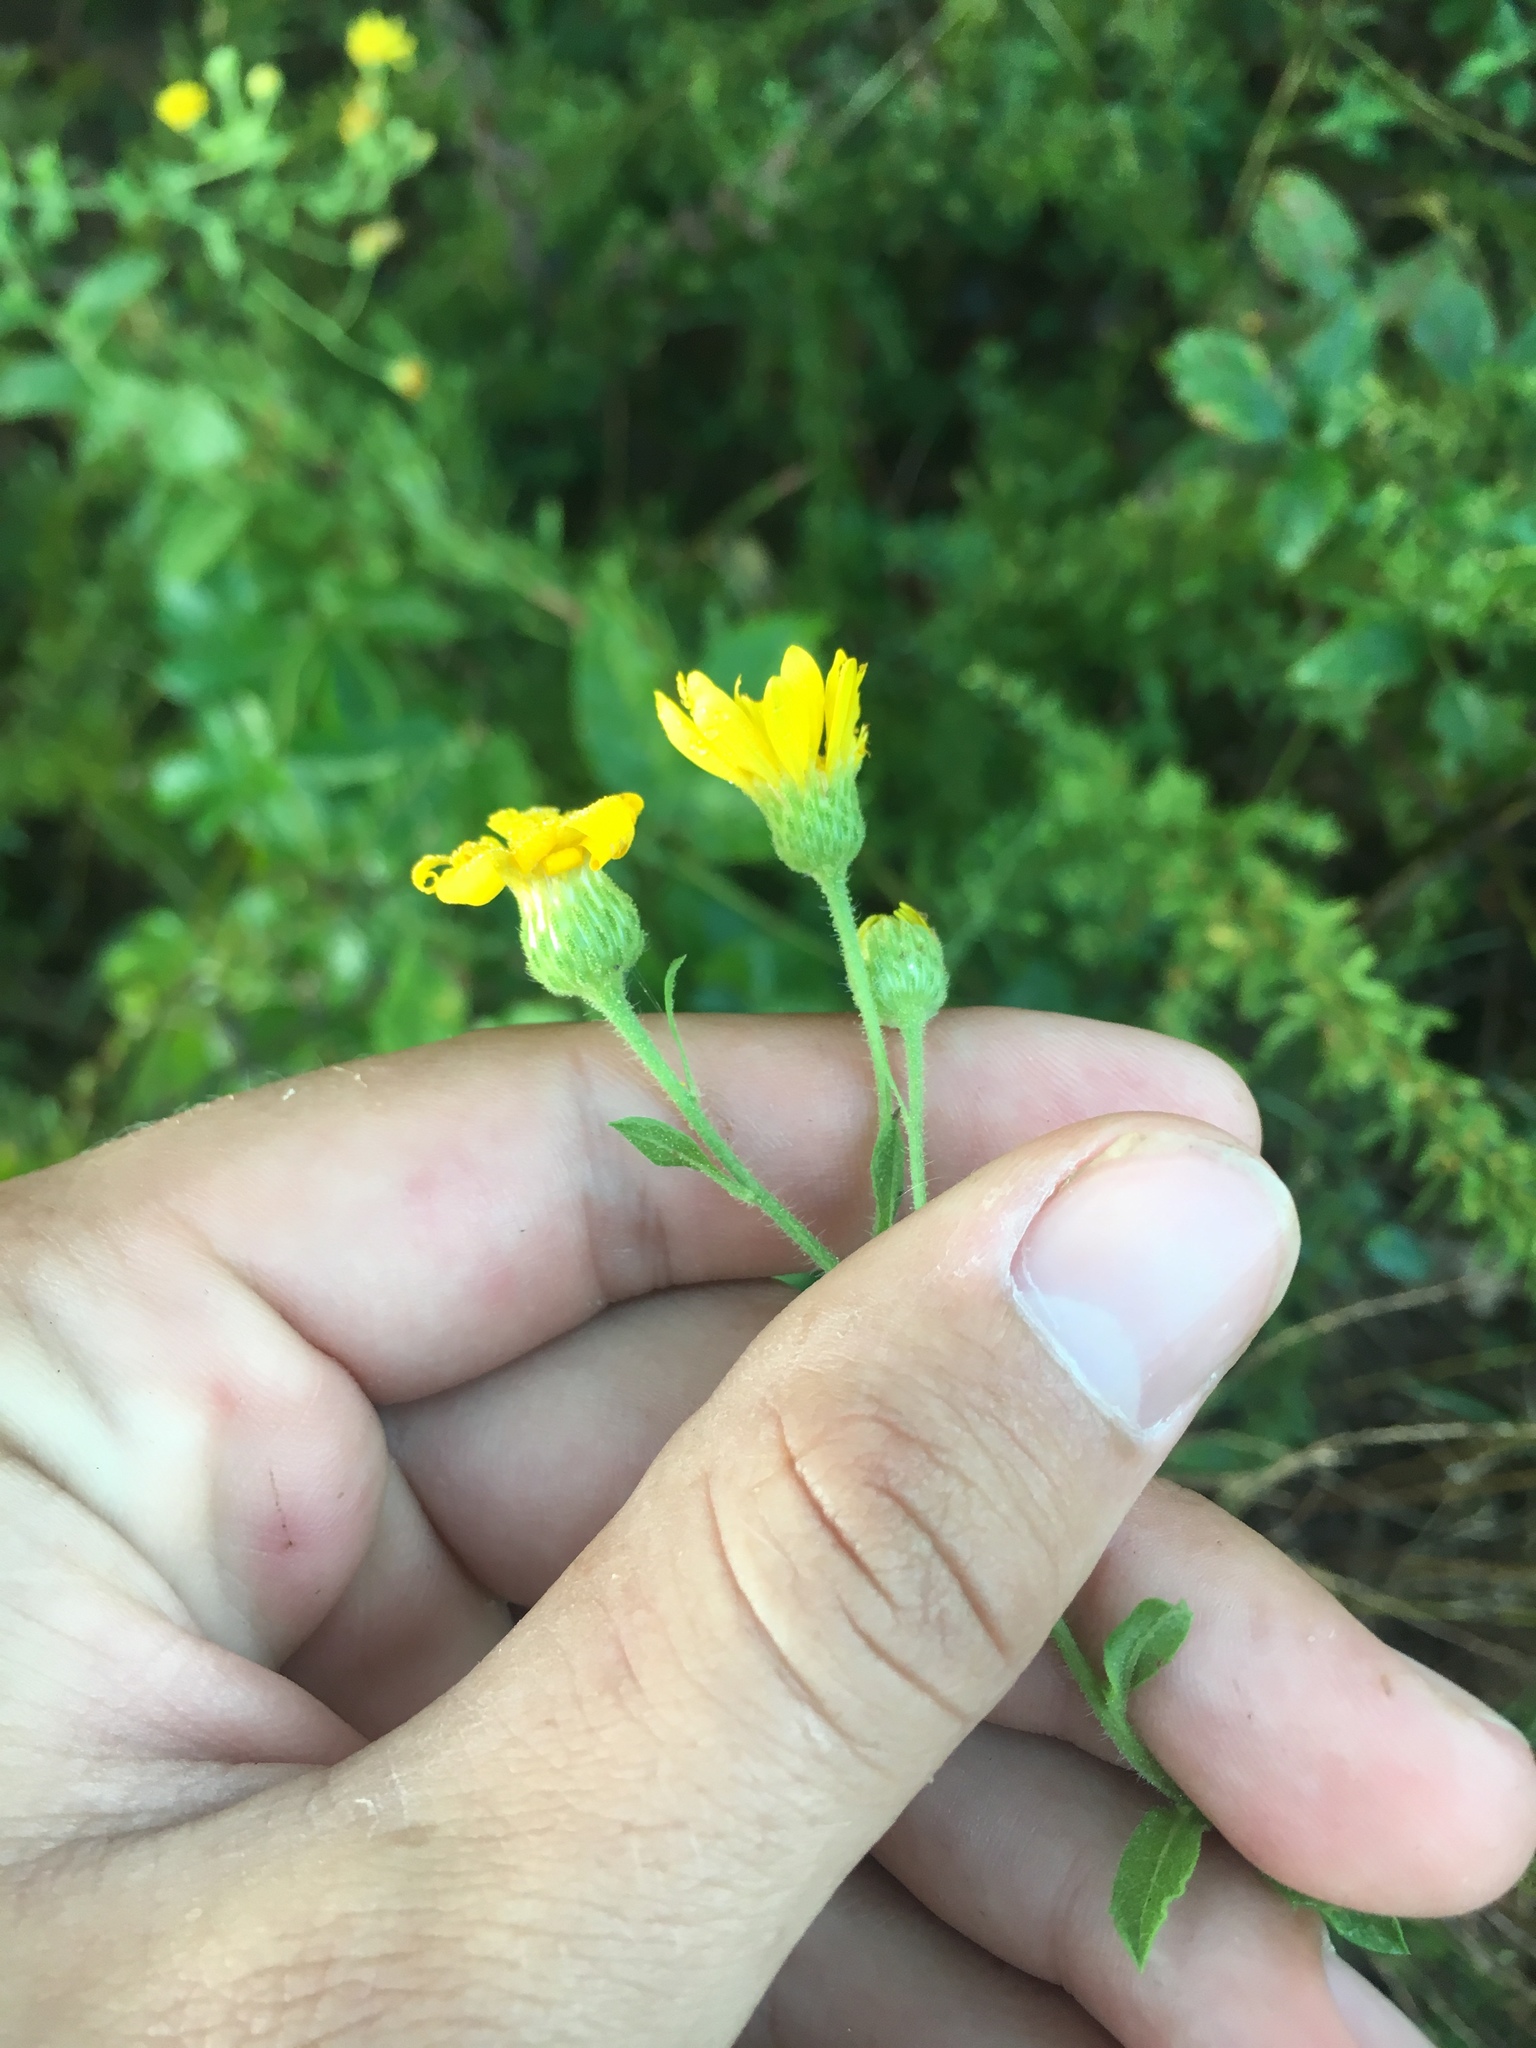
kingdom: Plantae
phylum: Tracheophyta
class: Magnoliopsida
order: Asterales
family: Asteraceae
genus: Heterotheca
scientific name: Heterotheca subaxillaris
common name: Camphorweed
